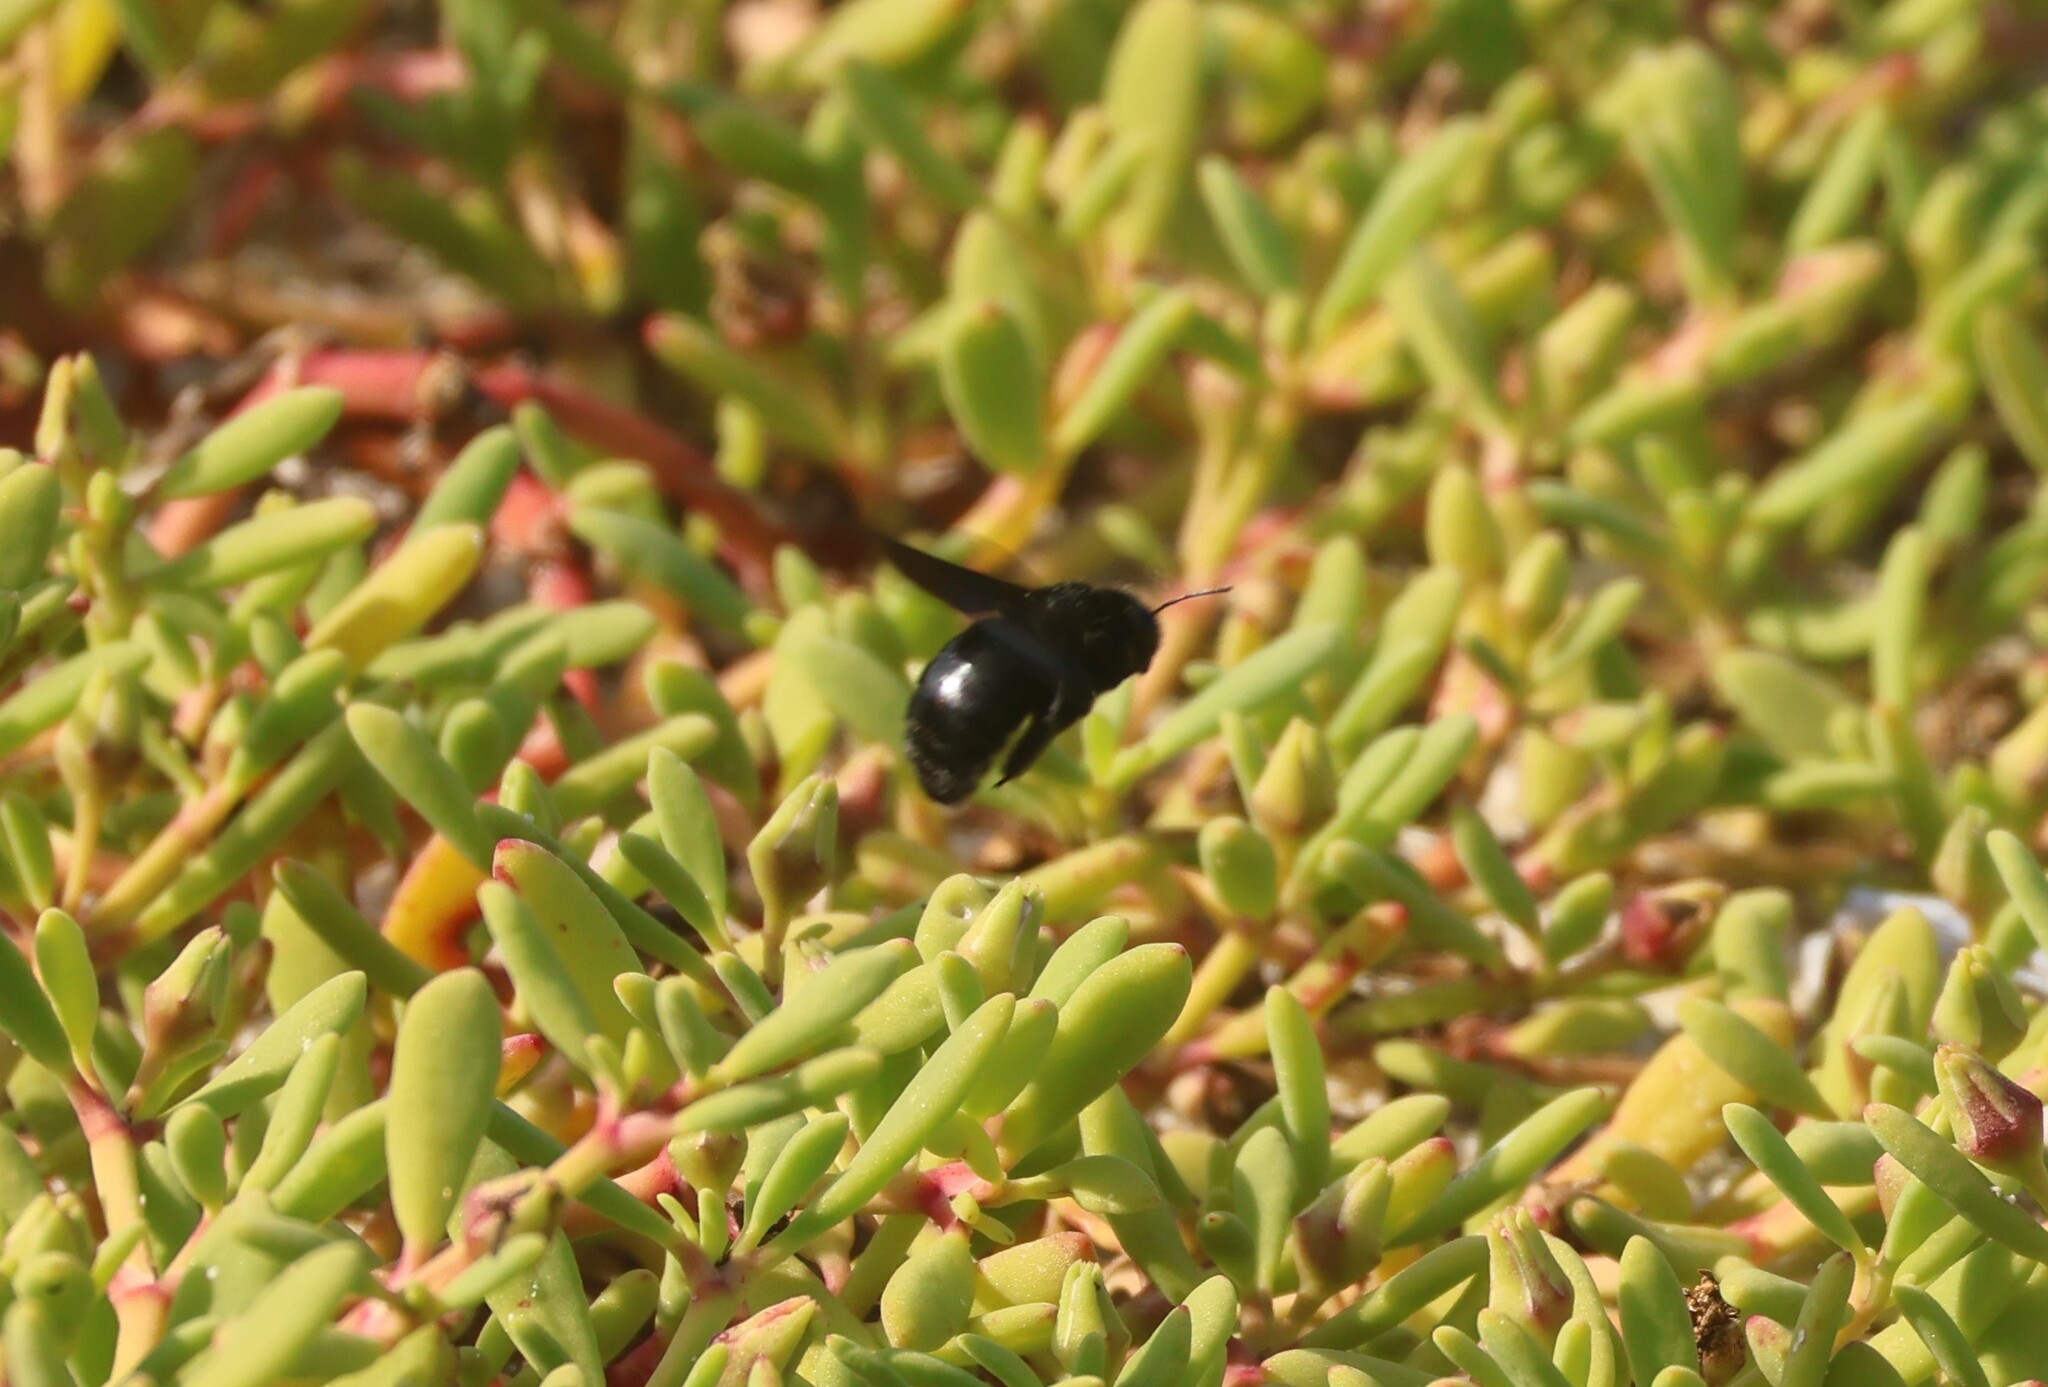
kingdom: Animalia
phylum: Arthropoda
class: Insecta
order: Hymenoptera
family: Apidae
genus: Xylocopa
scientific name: Xylocopa darwini
